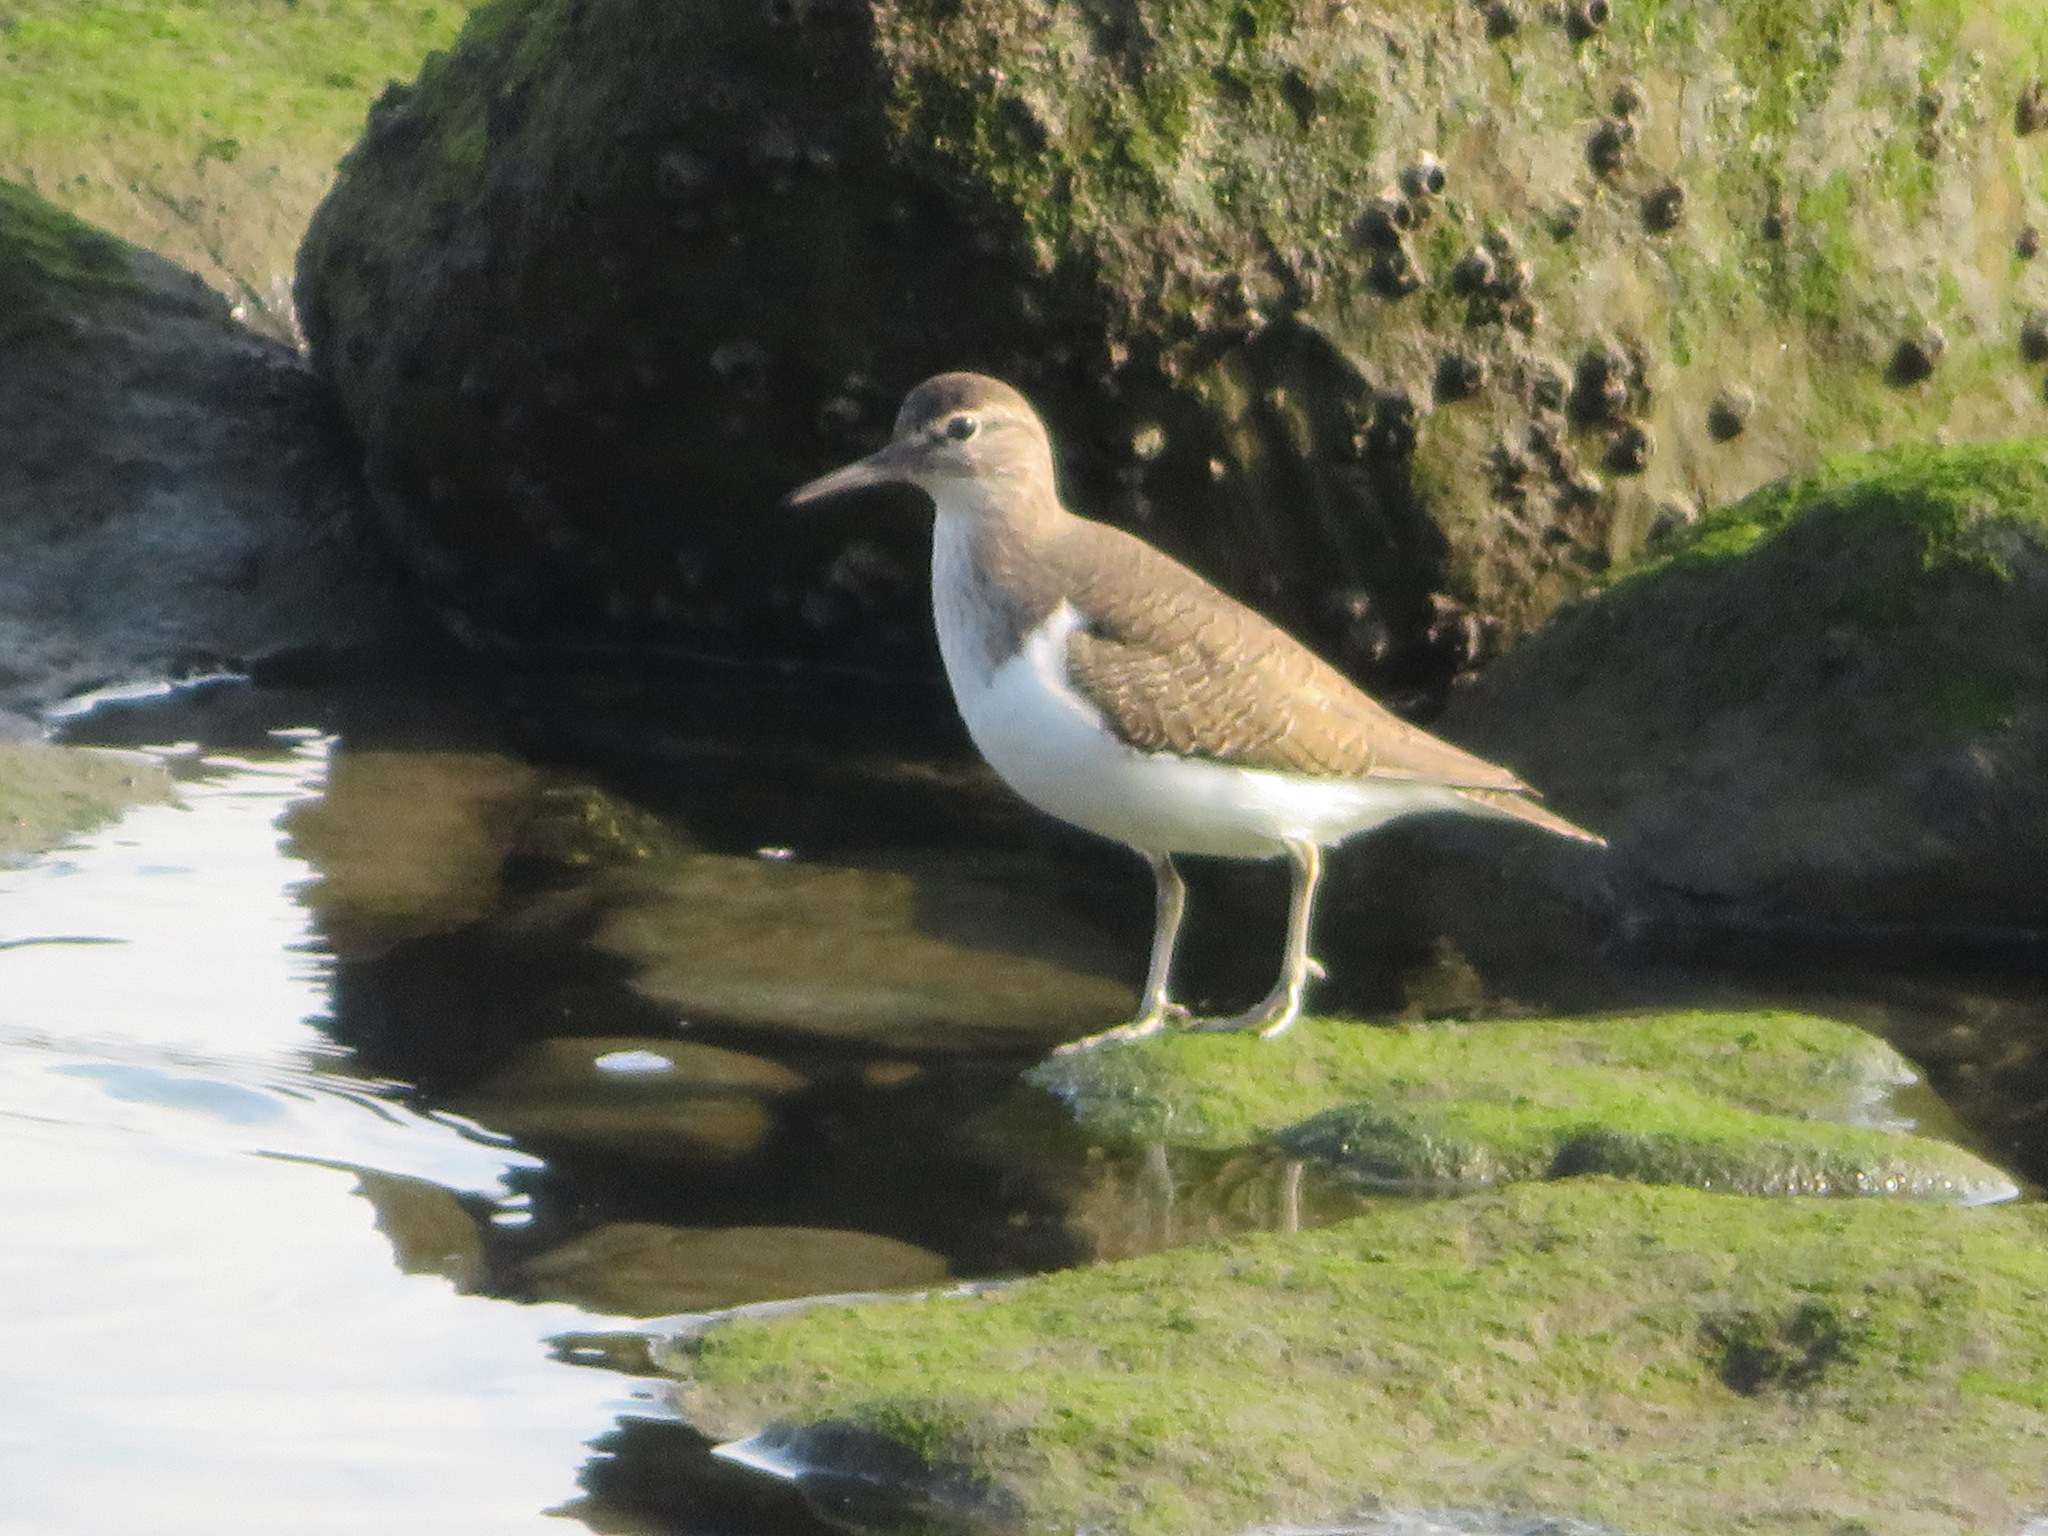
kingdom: Animalia
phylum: Chordata
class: Aves
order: Charadriiformes
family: Scolopacidae
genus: Actitis
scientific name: Actitis hypoleucos
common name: Common sandpiper
